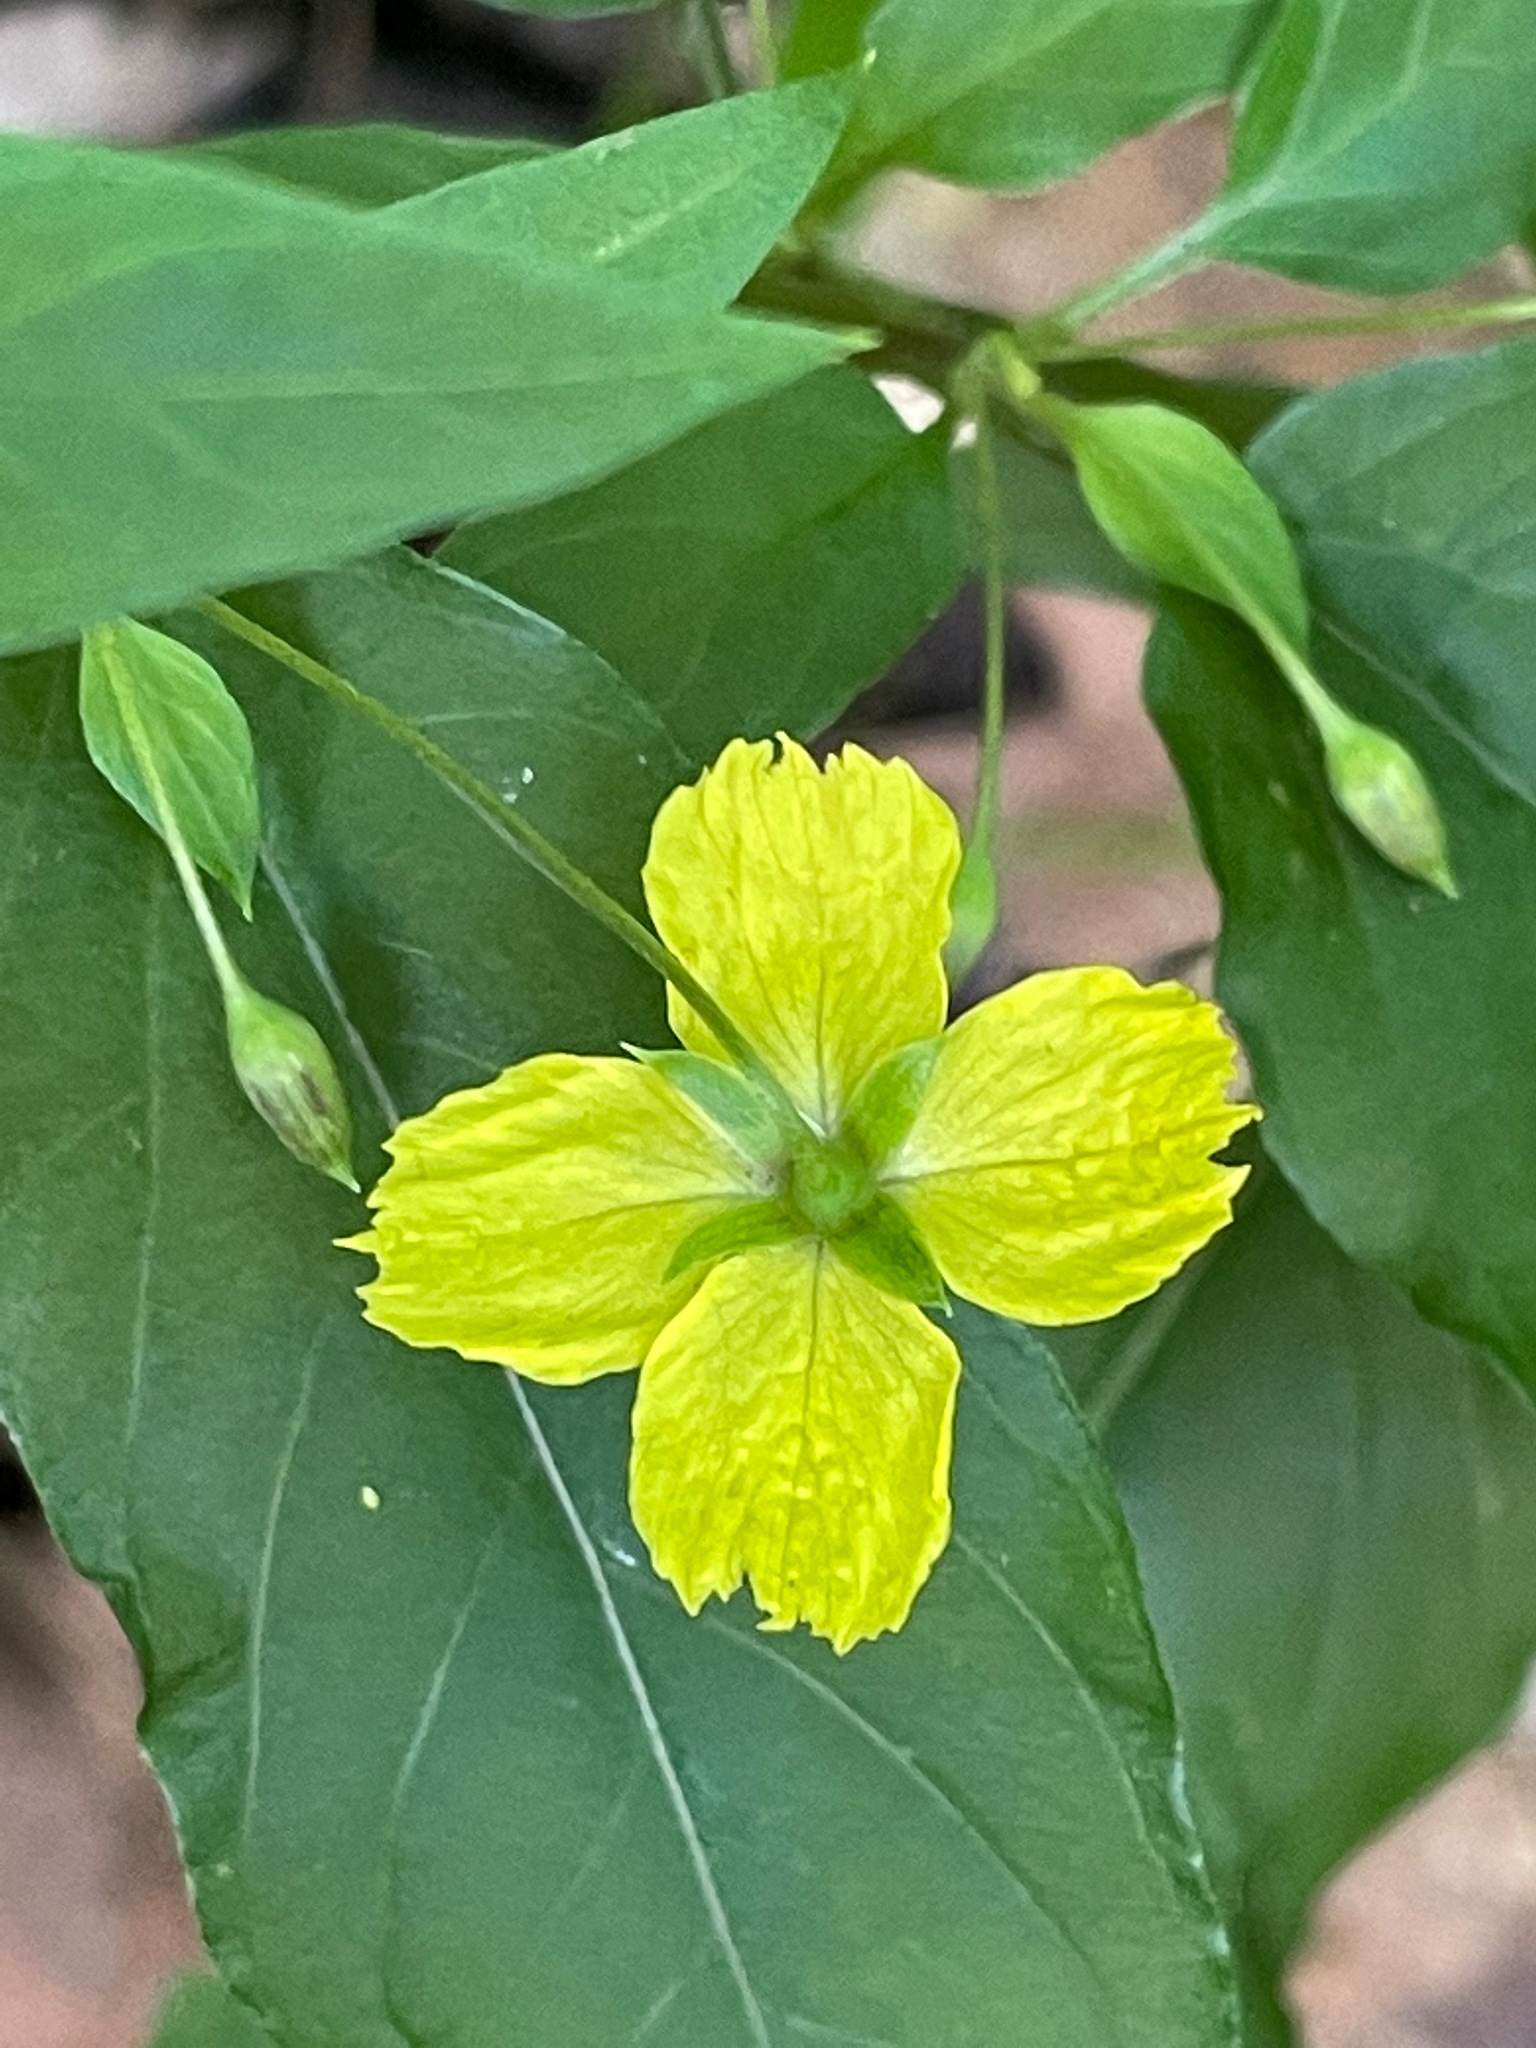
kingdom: Plantae
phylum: Tracheophyta
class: Magnoliopsida
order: Ericales
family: Primulaceae
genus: Lysimachia
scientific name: Lysimachia ciliata
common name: Fringed loosestrife
